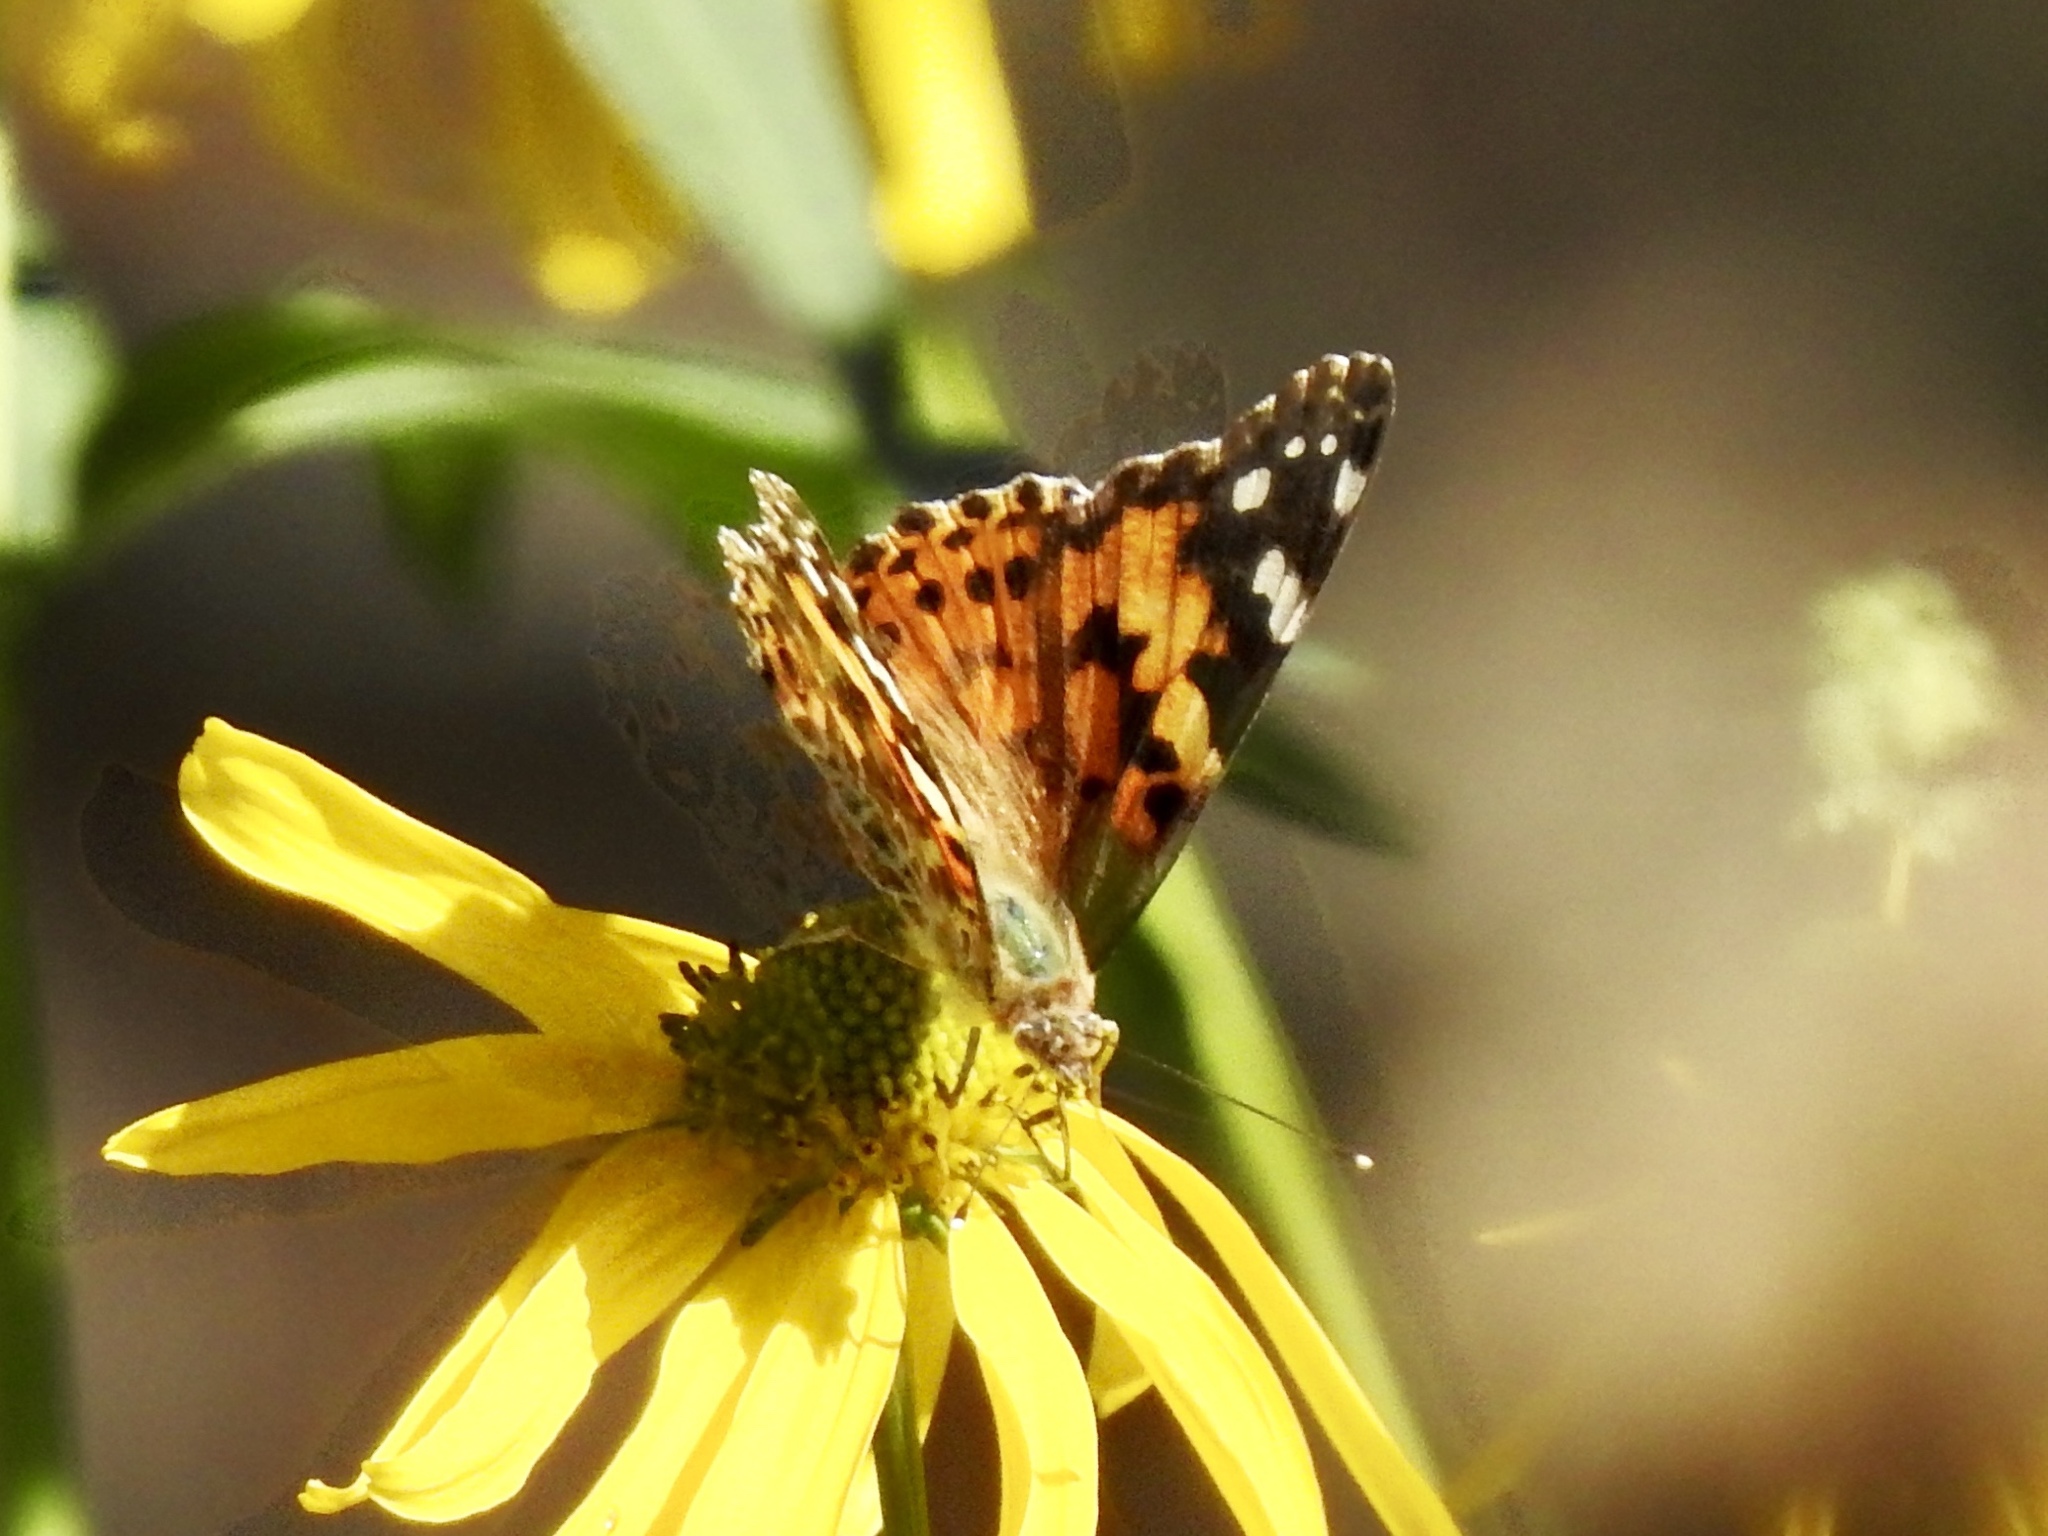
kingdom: Animalia
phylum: Arthropoda
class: Insecta
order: Lepidoptera
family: Nymphalidae
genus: Vanessa
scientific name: Vanessa cardui
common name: Painted lady
